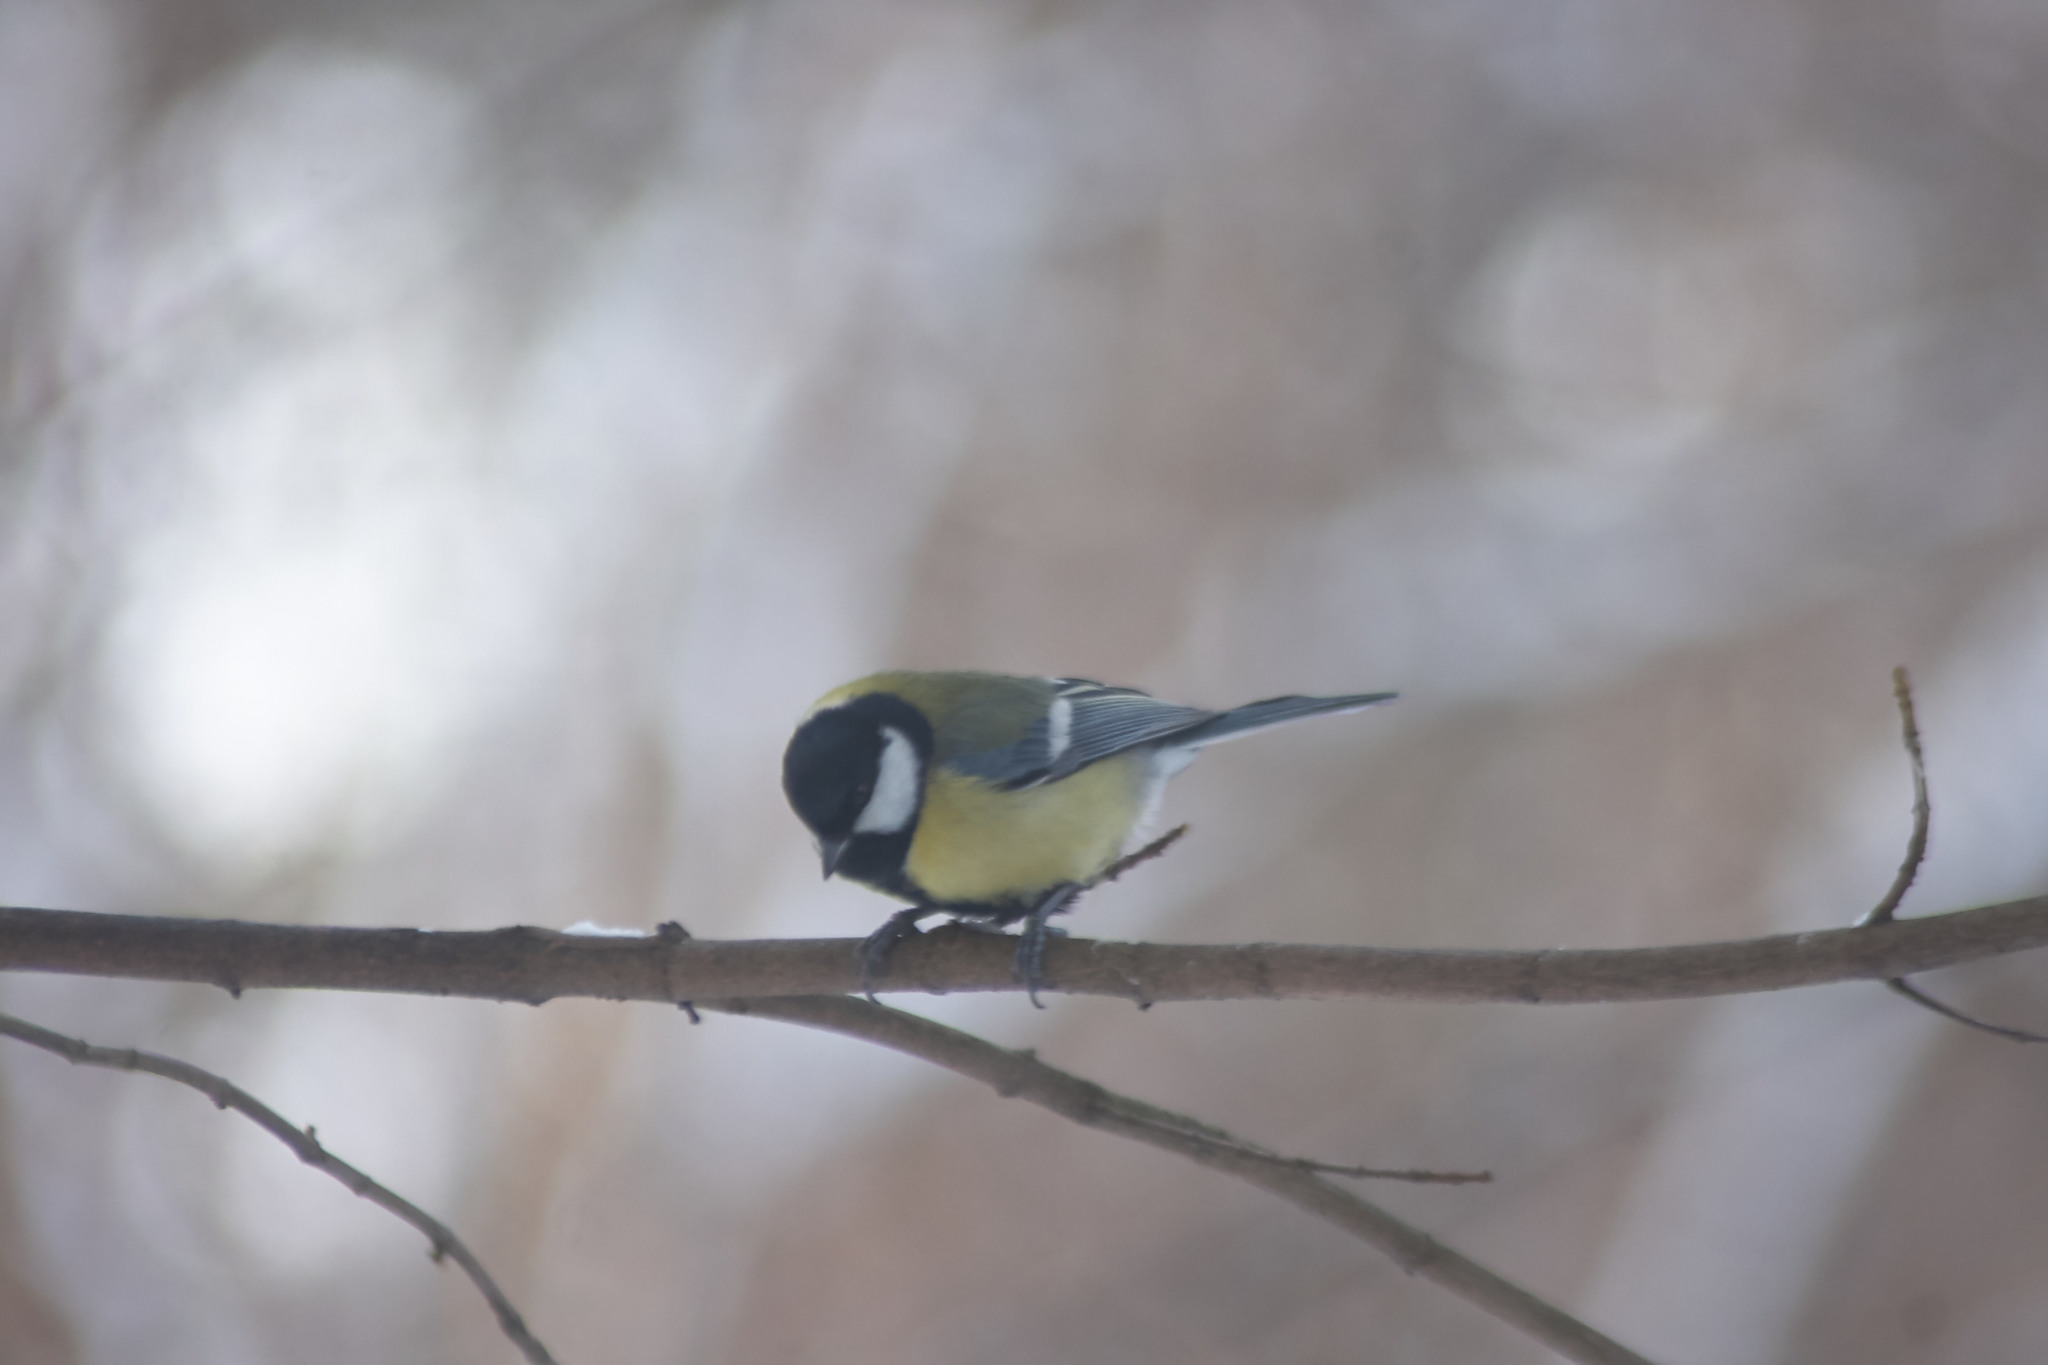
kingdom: Animalia
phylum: Chordata
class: Aves
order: Passeriformes
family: Paridae
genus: Parus
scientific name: Parus major
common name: Great tit
